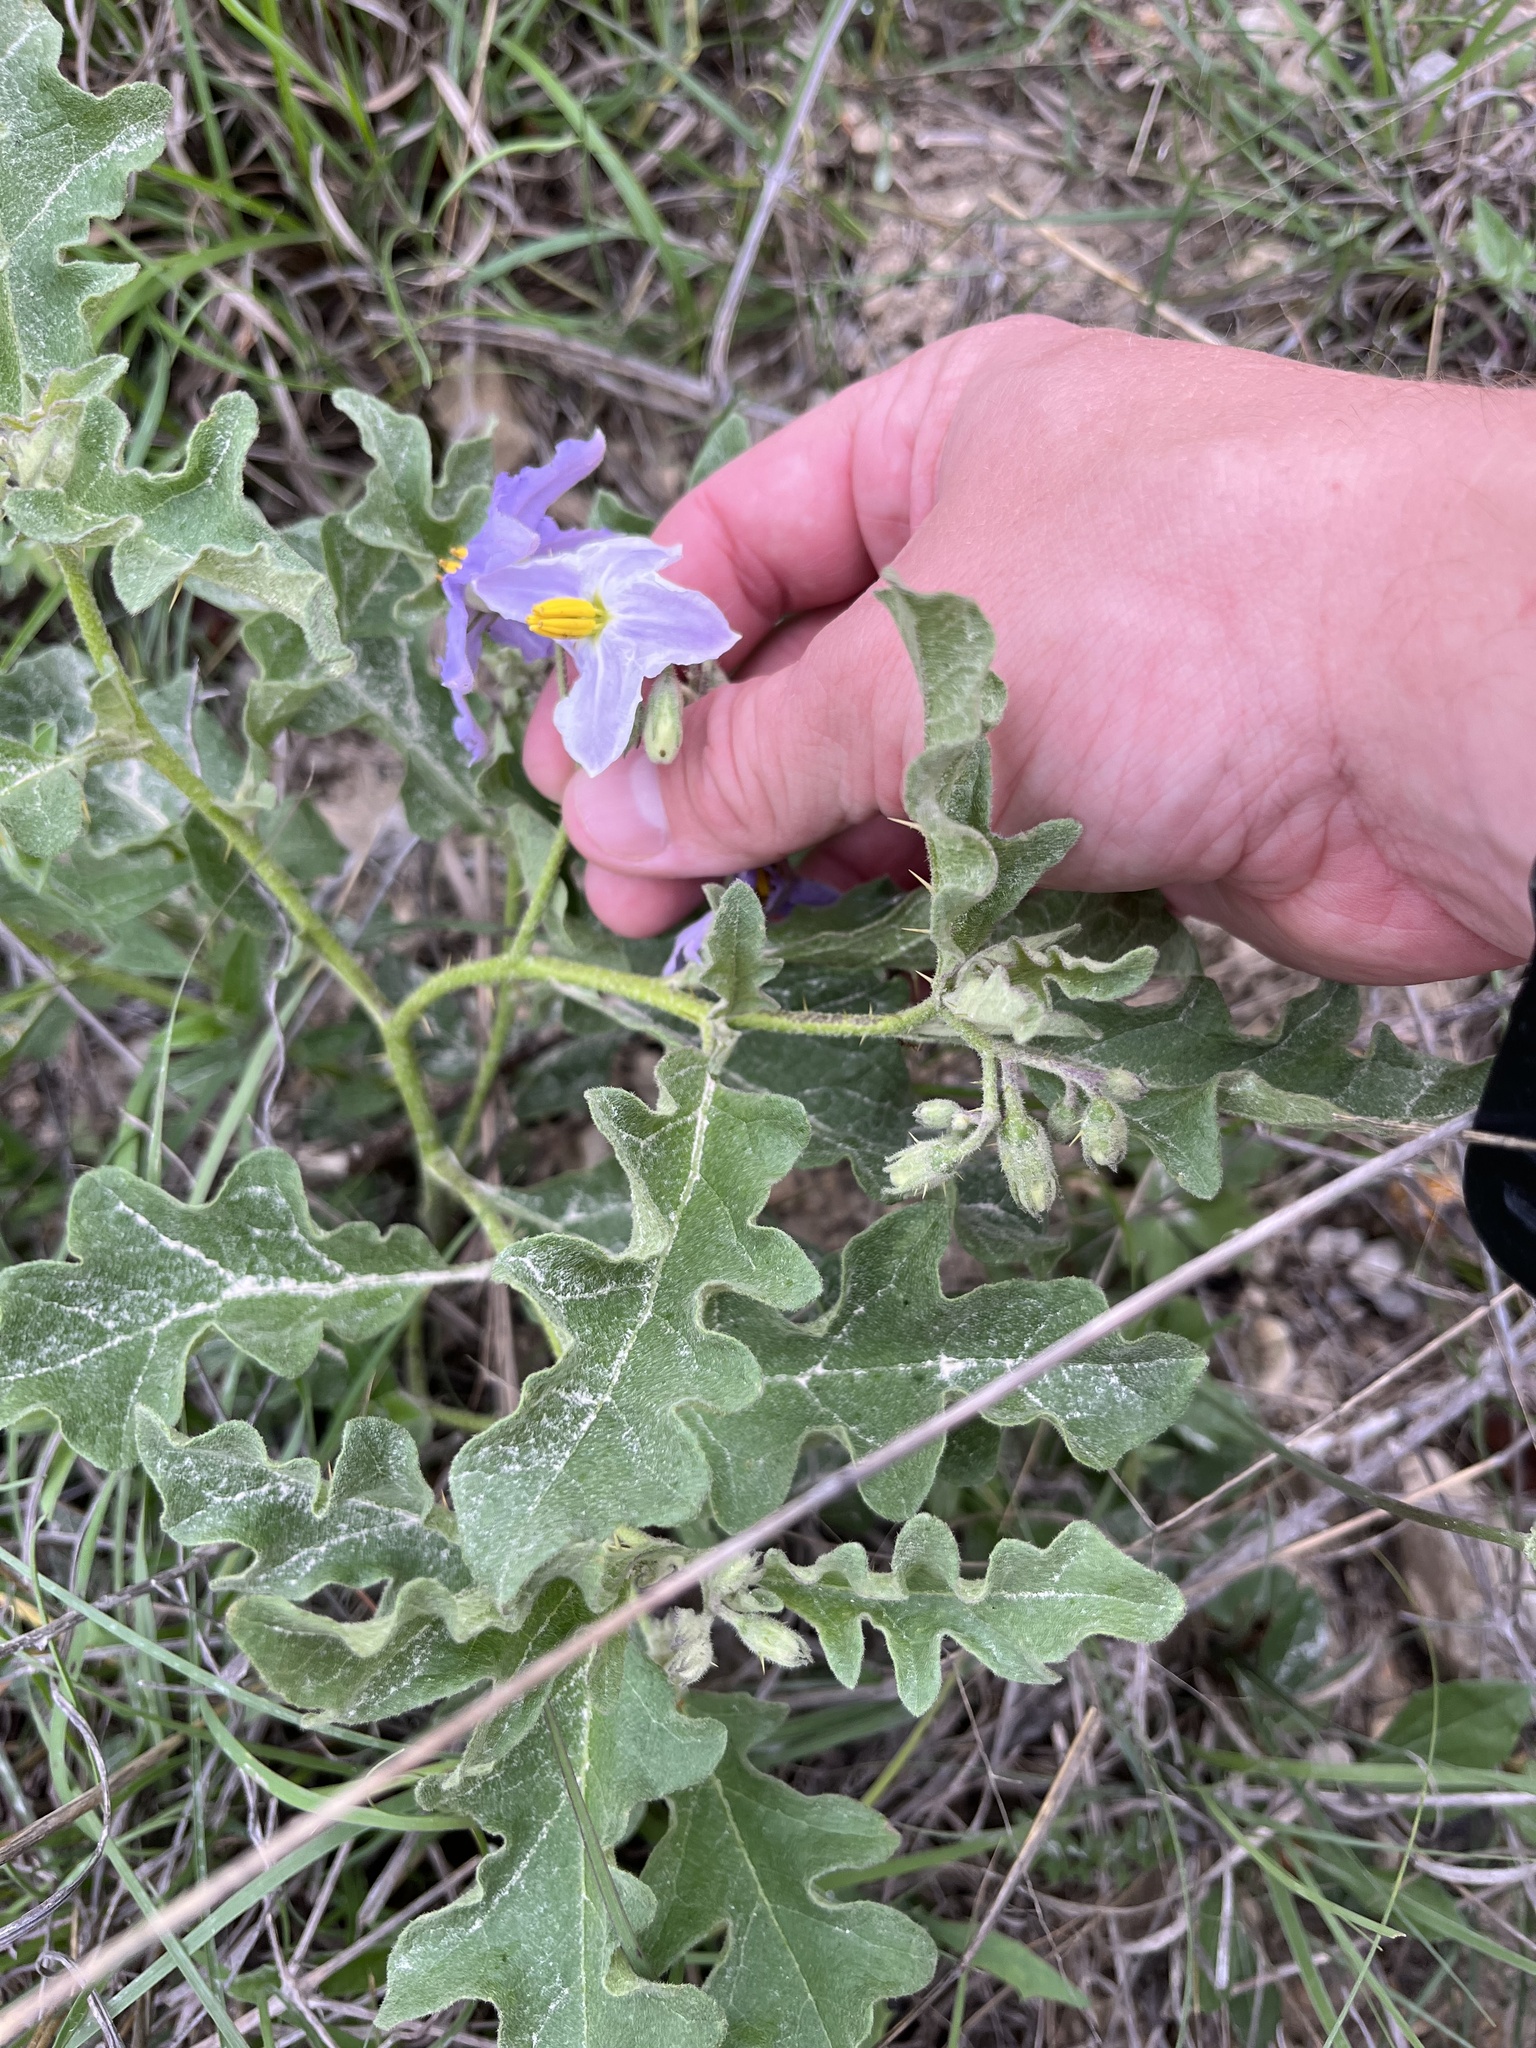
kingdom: Plantae
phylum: Tracheophyta
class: Magnoliopsida
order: Solanales
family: Solanaceae
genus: Solanum
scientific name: Solanum dimidiatum
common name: Carolina horse-nettle
